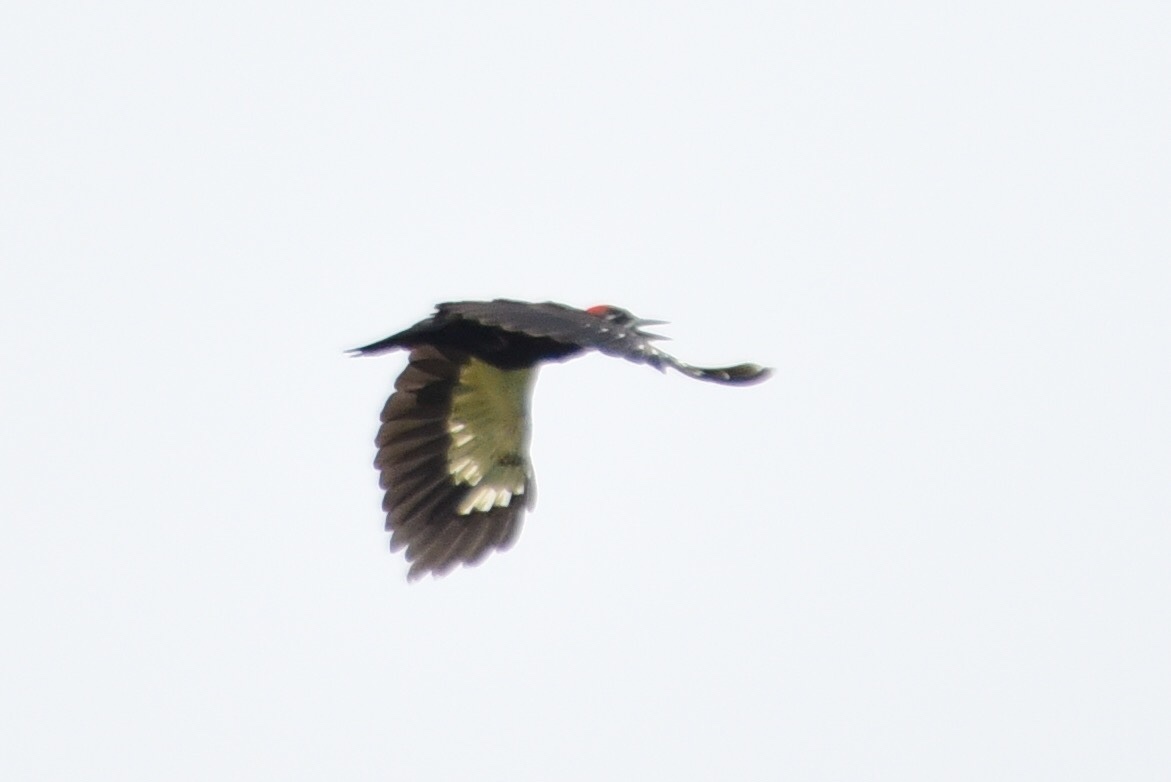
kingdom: Animalia
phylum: Chordata
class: Aves
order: Piciformes
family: Picidae
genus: Dryocopus
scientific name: Dryocopus pileatus
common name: Pileated woodpecker
